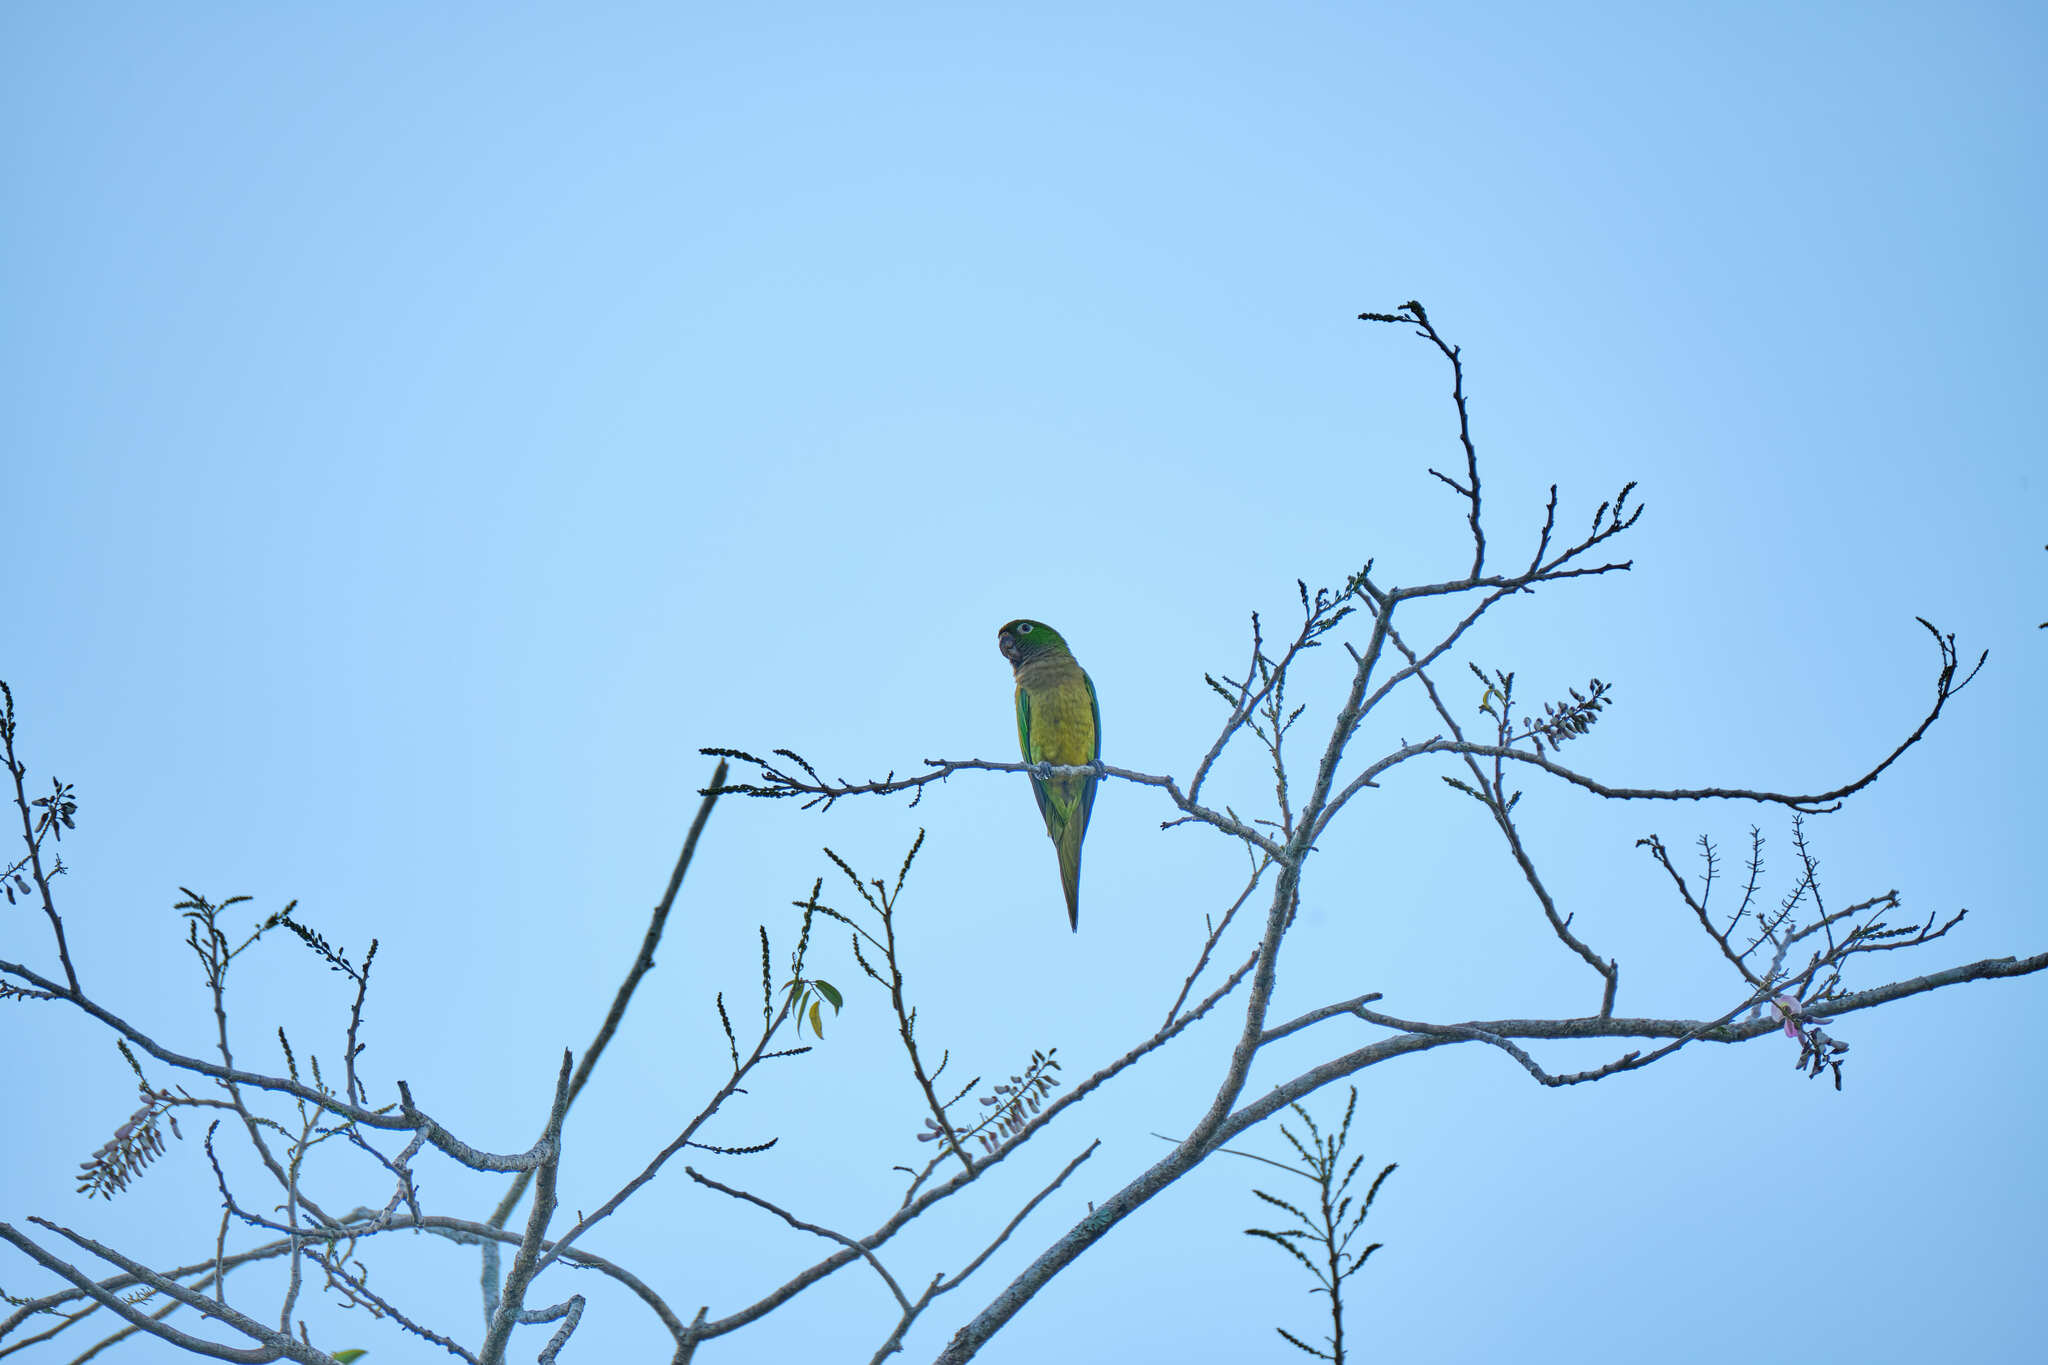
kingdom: Animalia
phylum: Chordata
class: Aves
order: Psittaciformes
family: Psittacidae
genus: Aratinga
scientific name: Aratinga nana
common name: Olive-throated parakeet
